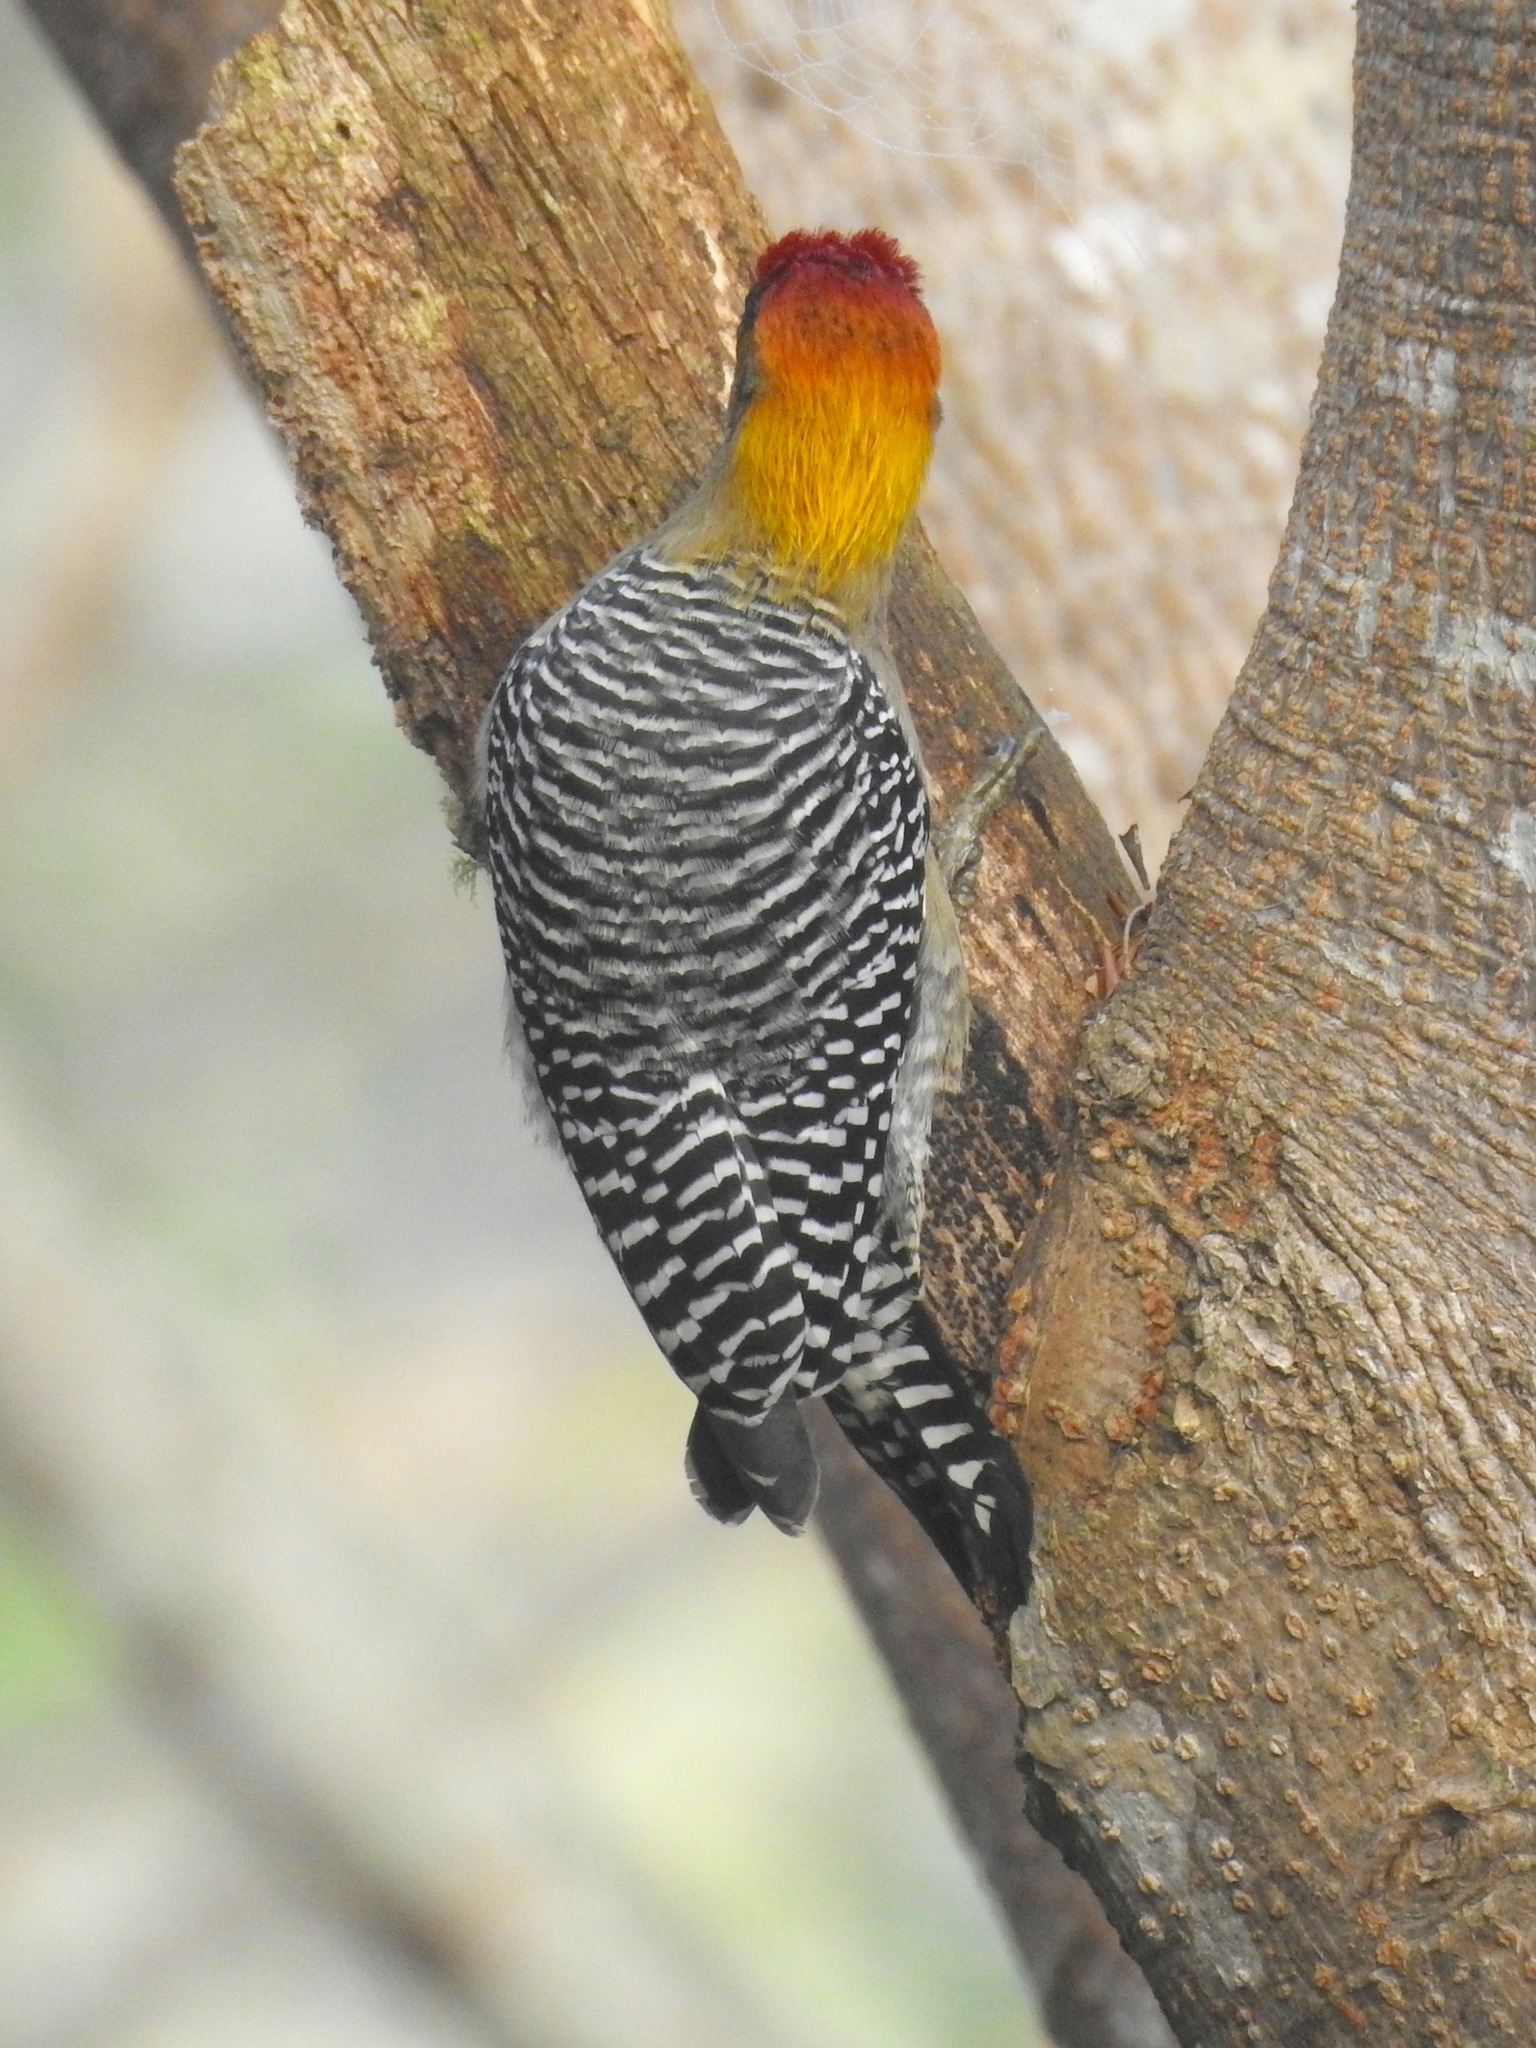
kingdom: Animalia
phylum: Chordata
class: Aves
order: Piciformes
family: Picidae
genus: Melanerpes
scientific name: Melanerpes chrysogenys
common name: Golden-cheeked woodpecker
